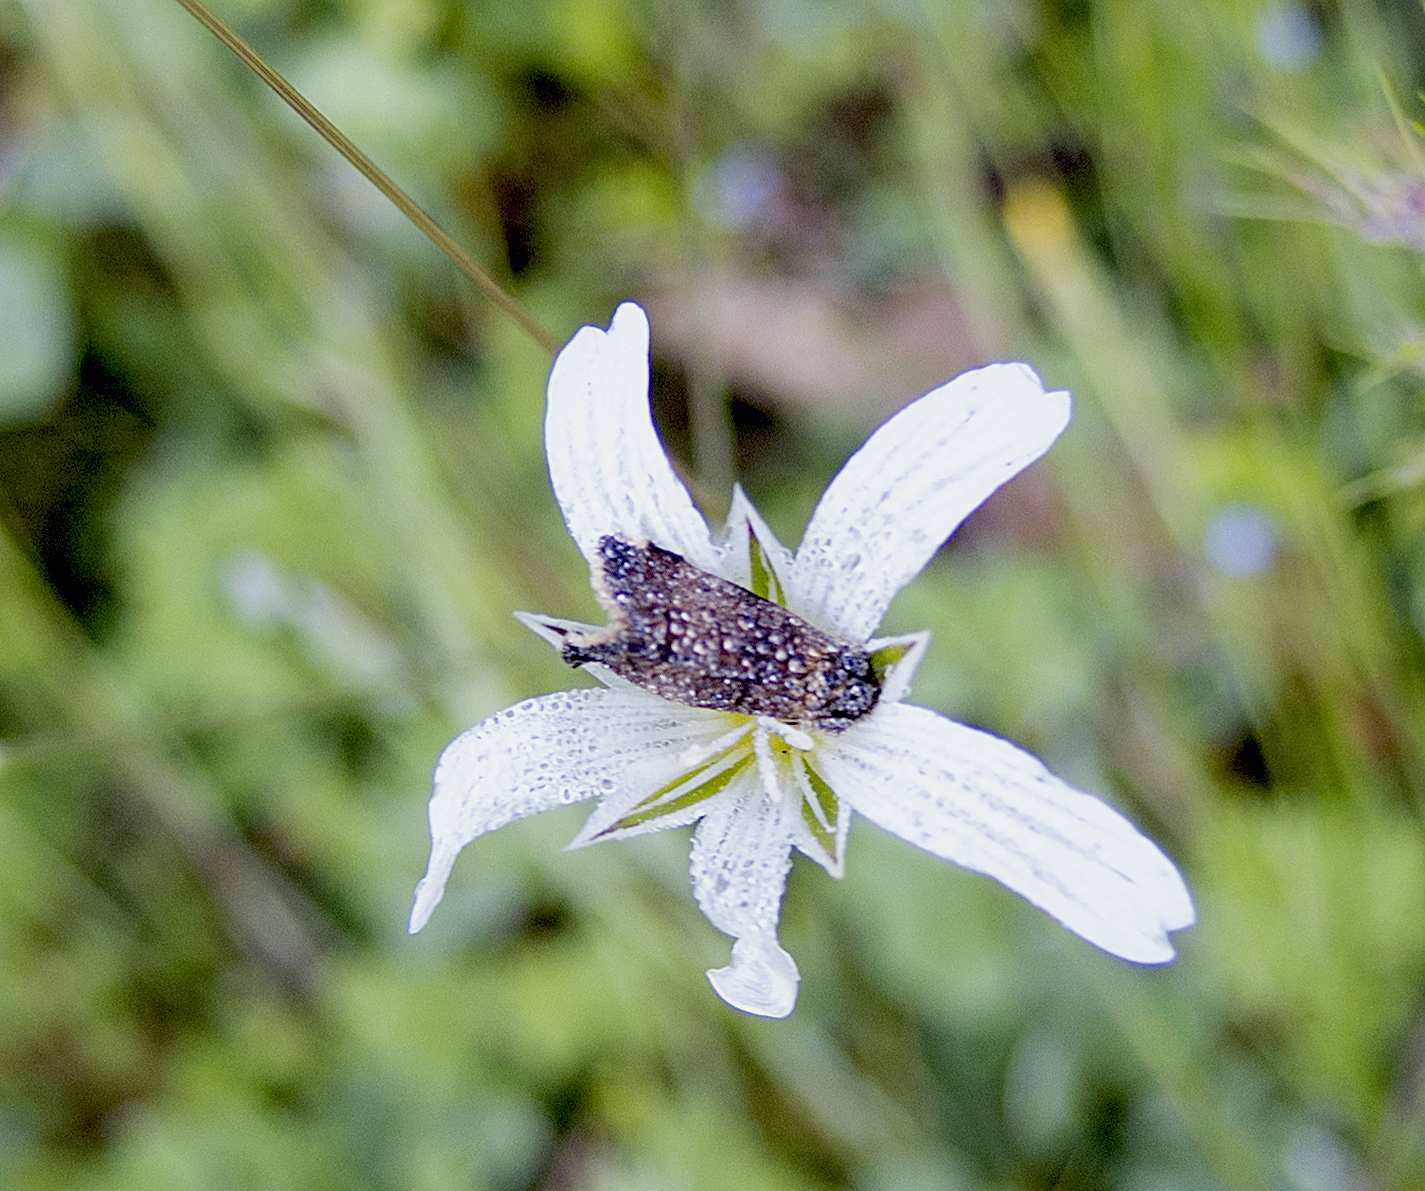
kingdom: Animalia
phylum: Arthropoda
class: Insecta
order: Lepidoptera
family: Noctuidae
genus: Panemeria
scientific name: Panemeria tenebrata
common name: Small yellow underwing
